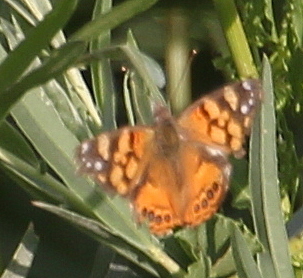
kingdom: Animalia
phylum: Arthropoda
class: Insecta
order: Lepidoptera
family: Nymphalidae
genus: Vanessa
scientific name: Vanessa annabella
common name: West coast lady
